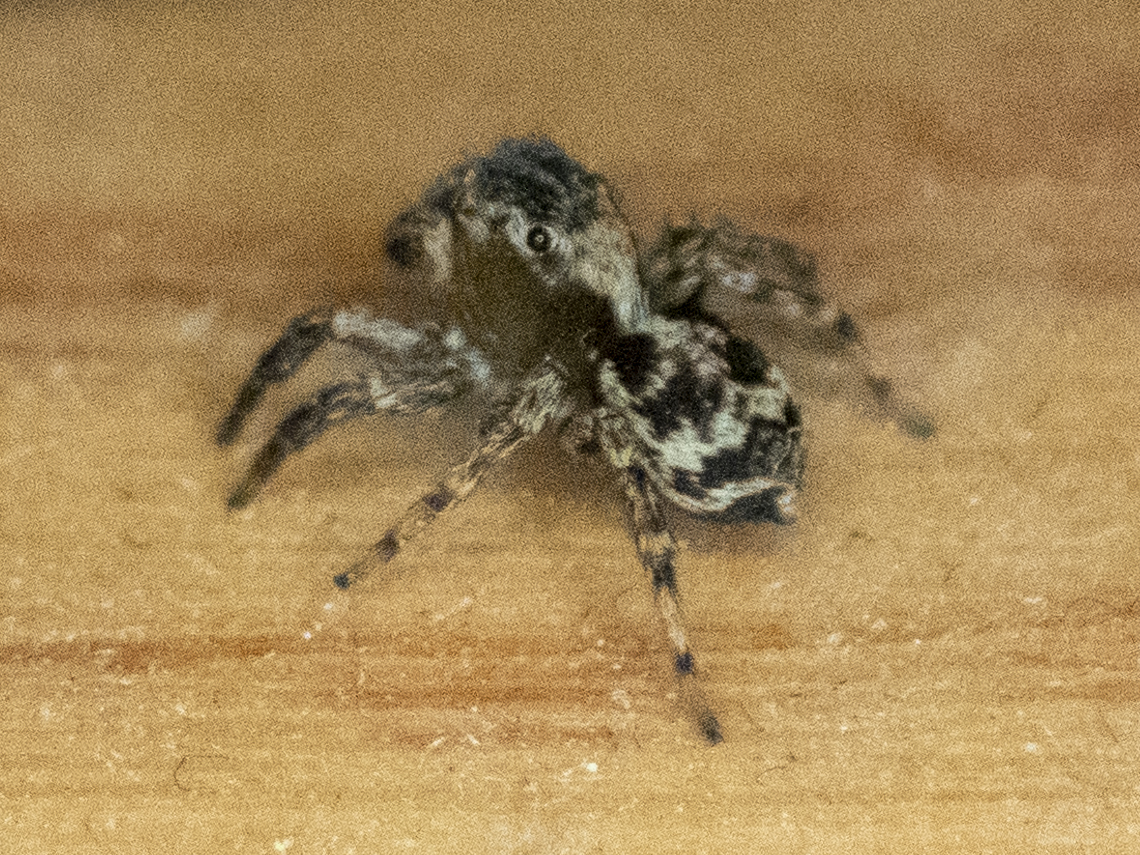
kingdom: Animalia
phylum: Arthropoda
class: Arachnida
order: Araneae
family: Salticidae
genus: Naphrys
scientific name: Naphrys pulex
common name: Flea jumping spider
